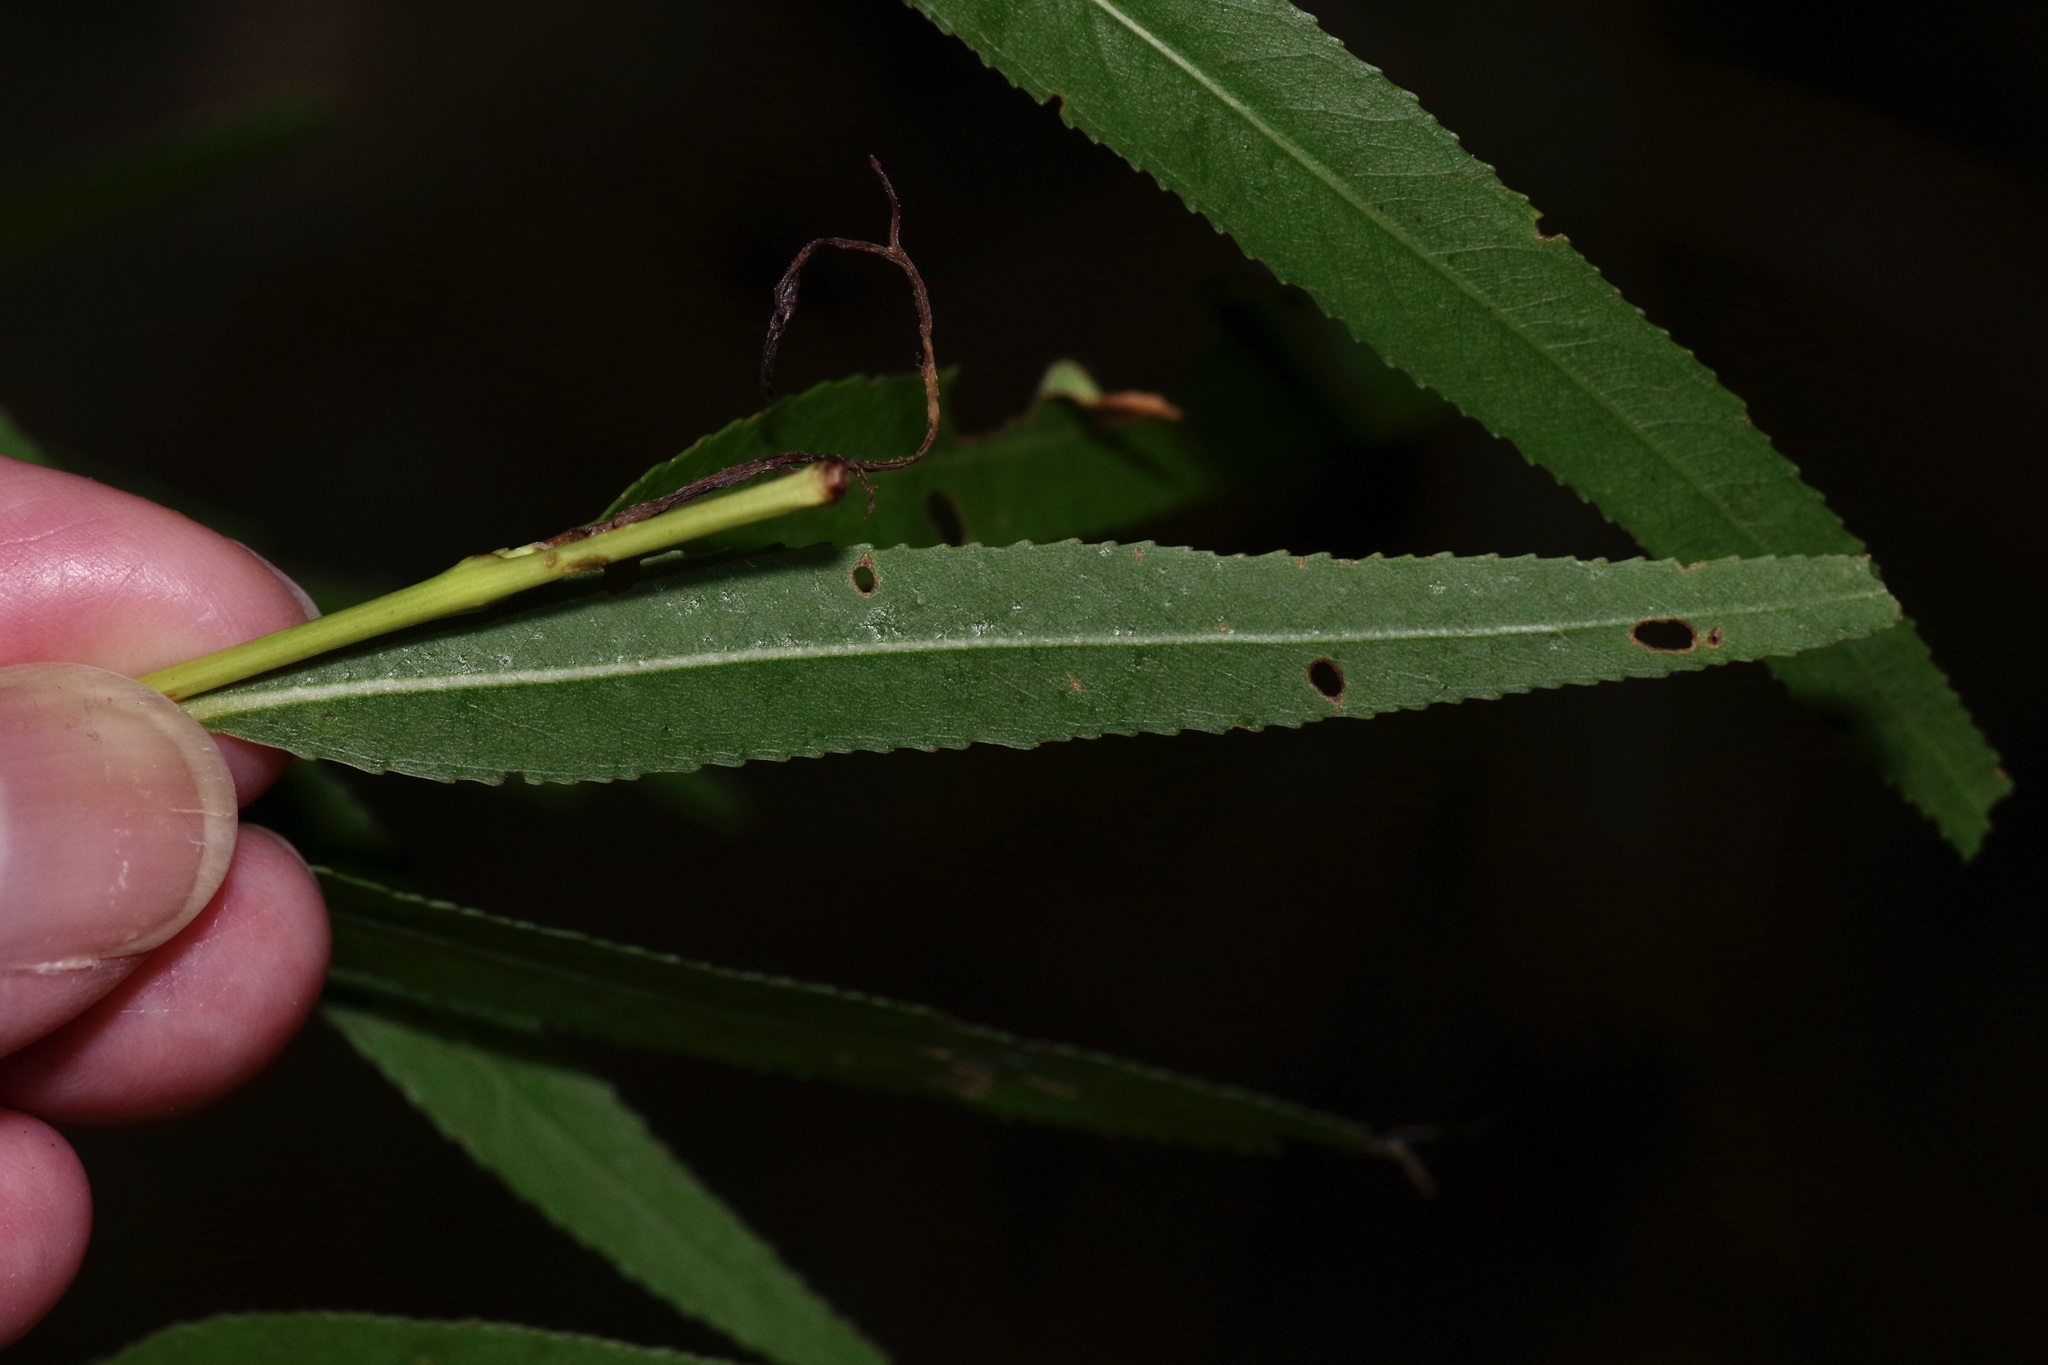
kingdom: Plantae
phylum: Tracheophyta
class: Magnoliopsida
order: Malpighiales
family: Salicaceae
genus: Salix
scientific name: Salix nigra
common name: Black willow
